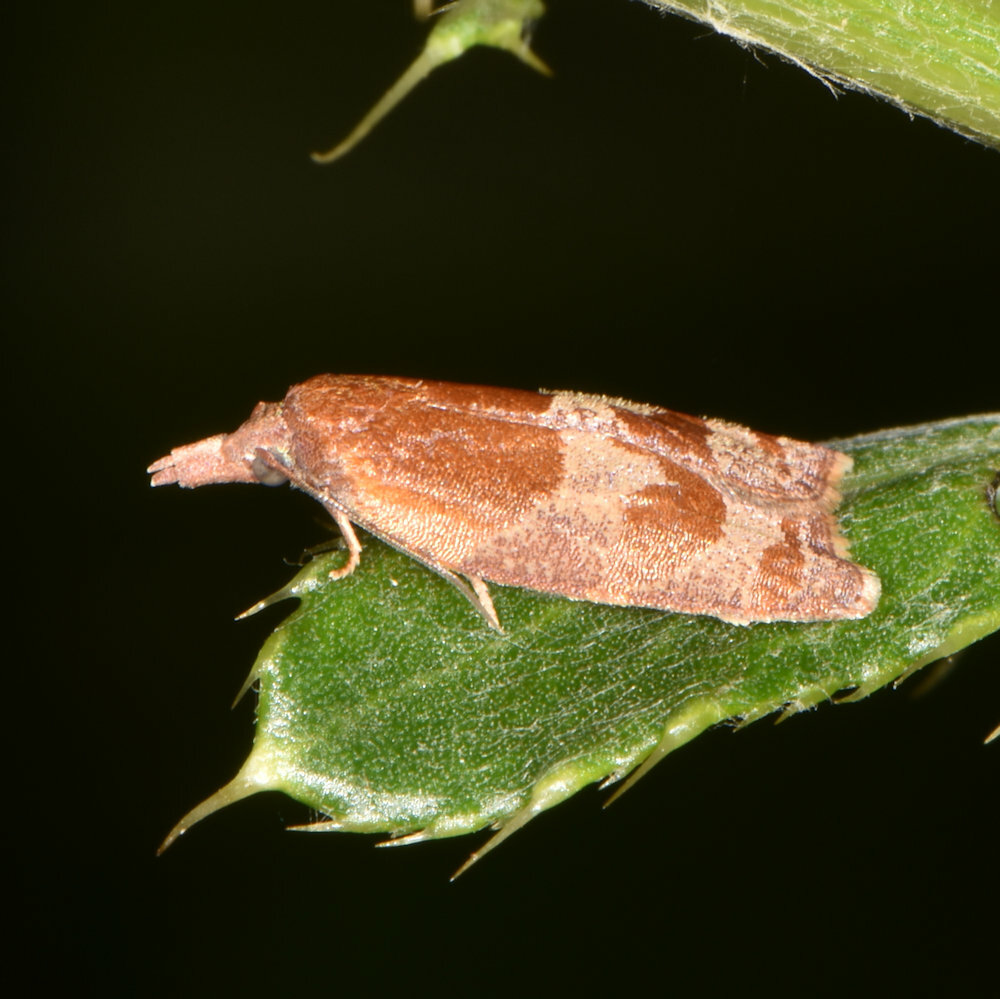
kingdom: Animalia
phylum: Arthropoda
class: Insecta
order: Lepidoptera
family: Tortricidae
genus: Cenopis
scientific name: Cenopis diluticostana
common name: Spring dead-leaf roller moth
